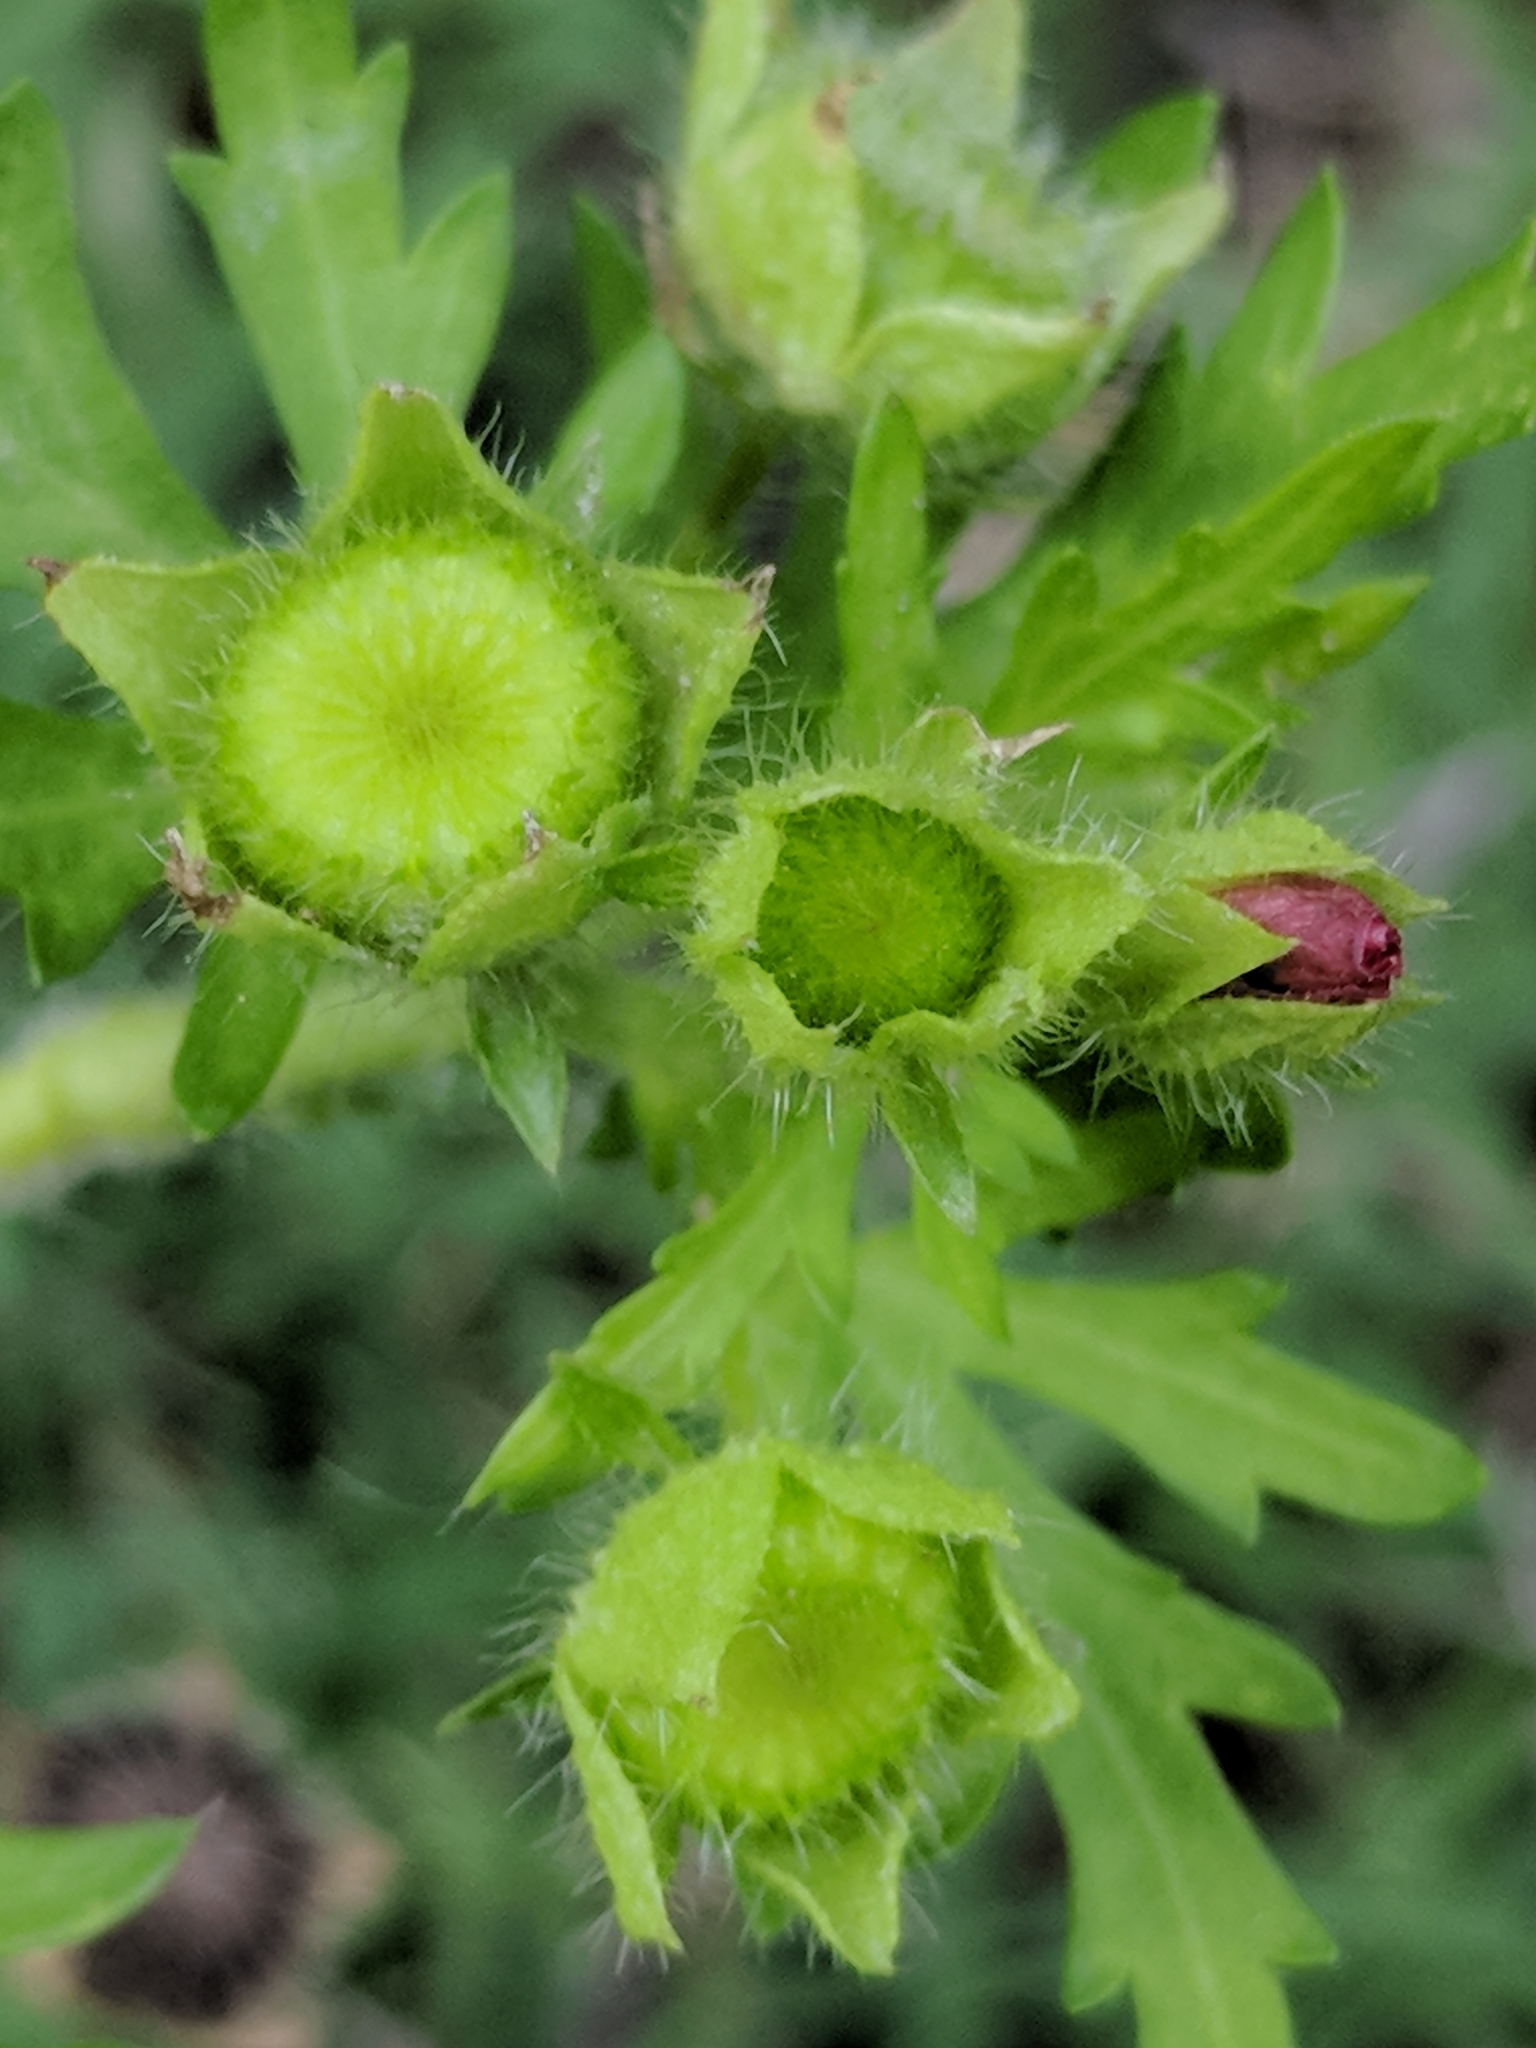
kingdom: Plantae
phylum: Tracheophyta
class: Magnoliopsida
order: Malvales
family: Malvaceae
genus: Modiola
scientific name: Modiola caroliniana
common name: Carolina bristlemallow
